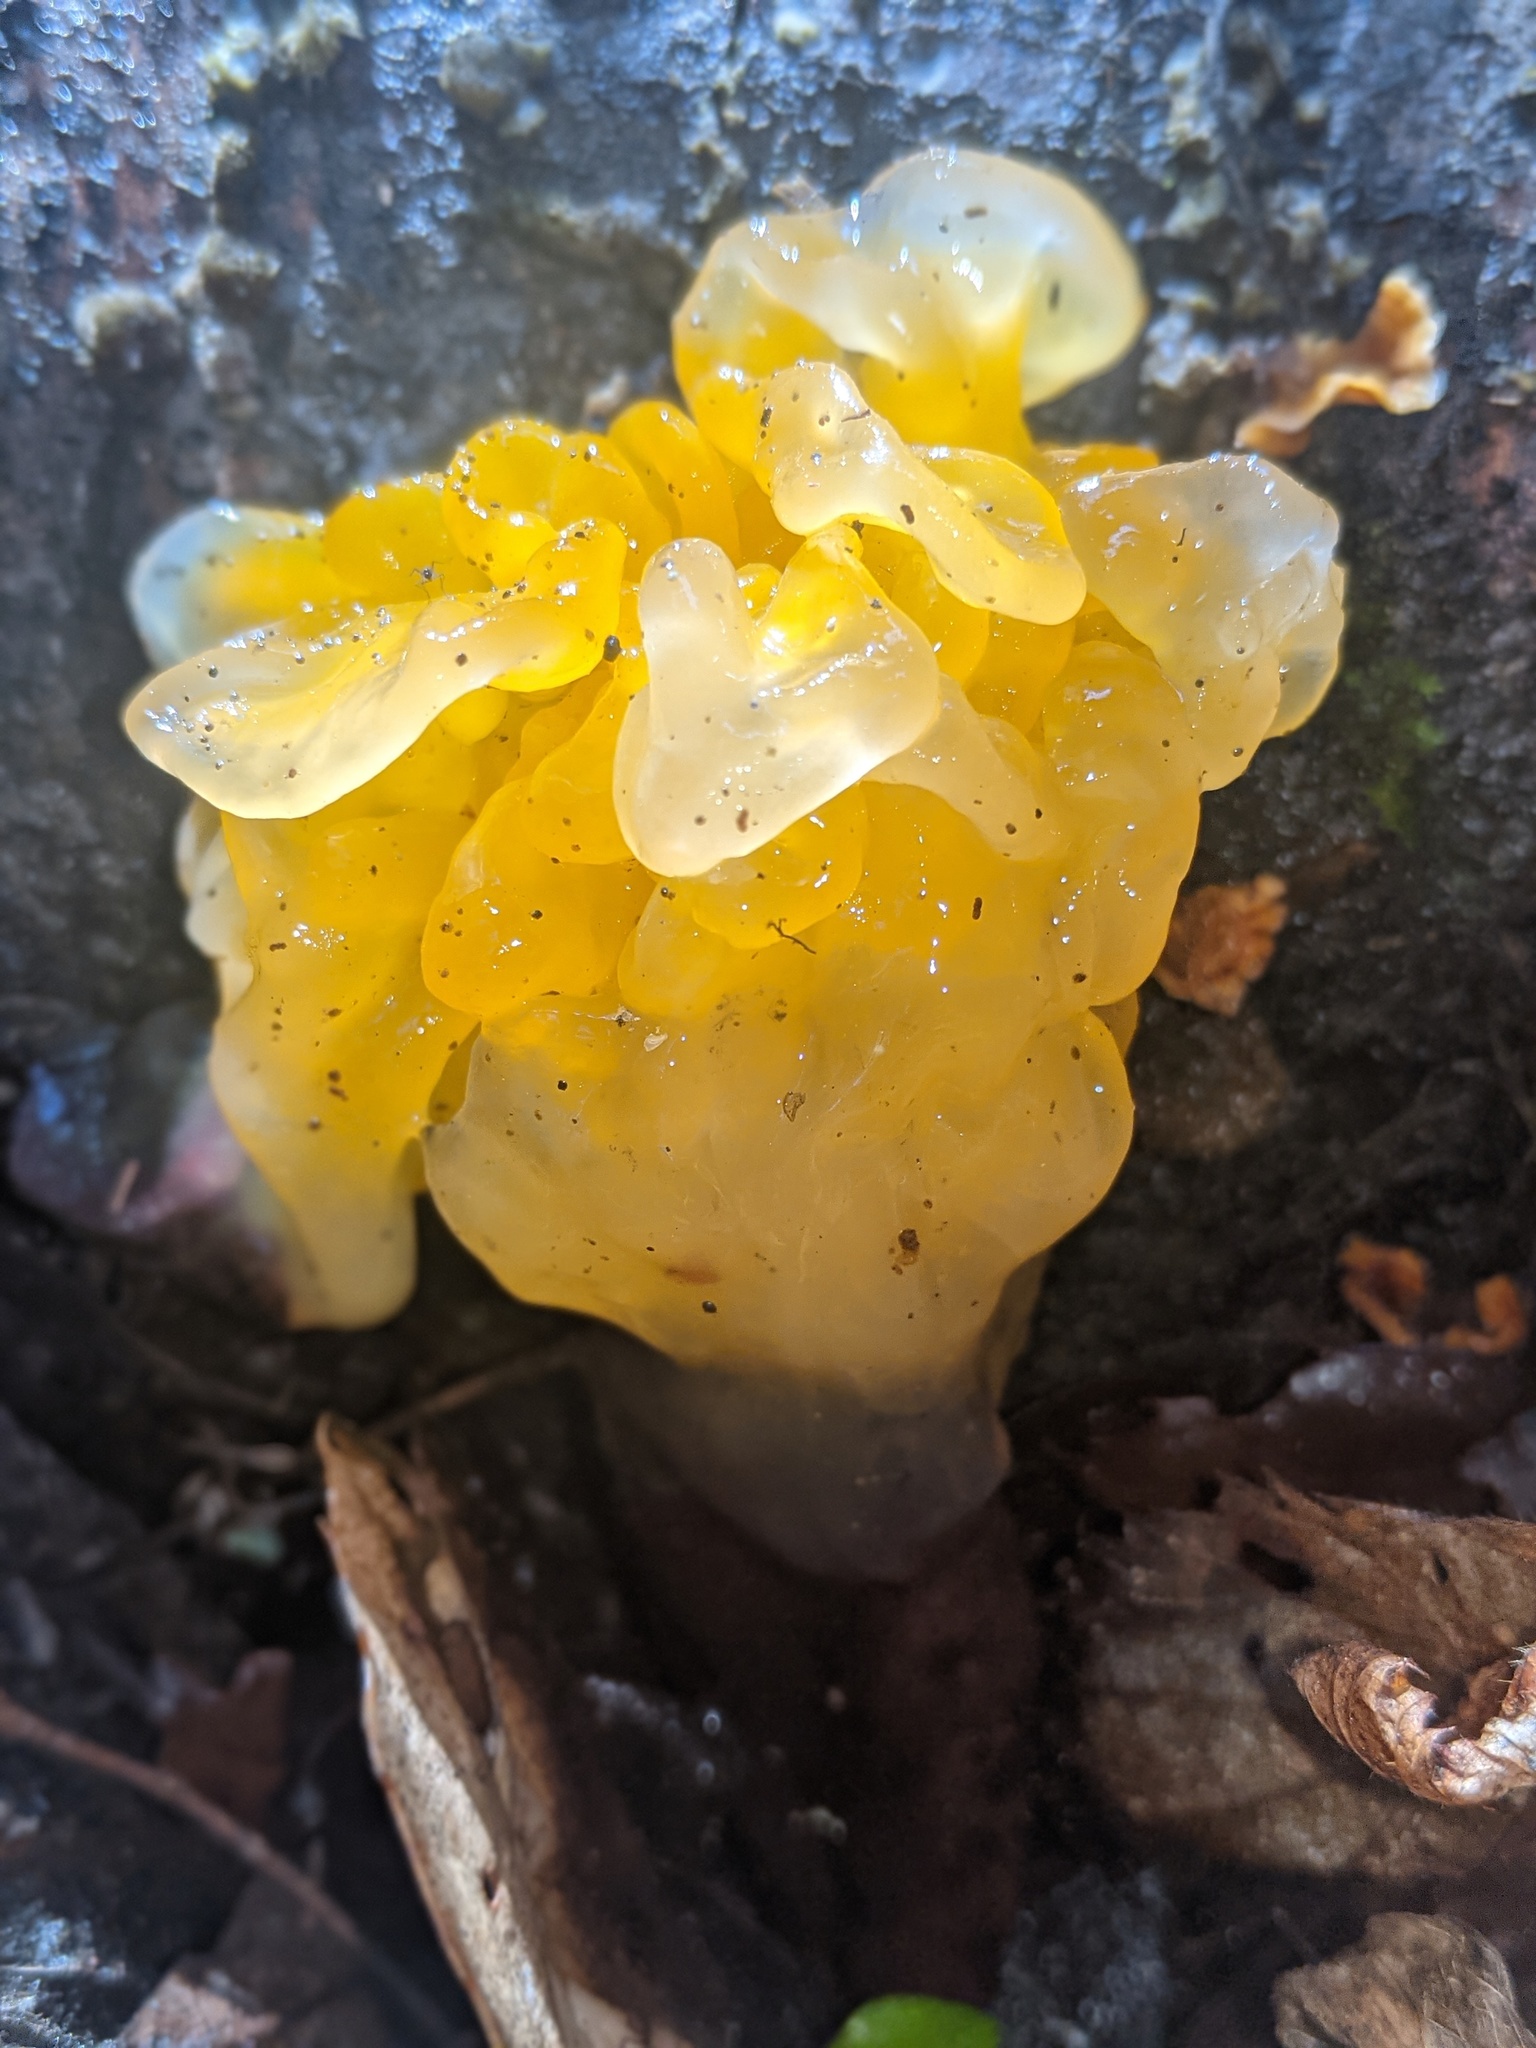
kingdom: Fungi
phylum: Basidiomycota
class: Tremellomycetes
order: Tremellales
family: Naemateliaceae
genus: Naematelia
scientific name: Naematelia aurantia
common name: Golden ear
